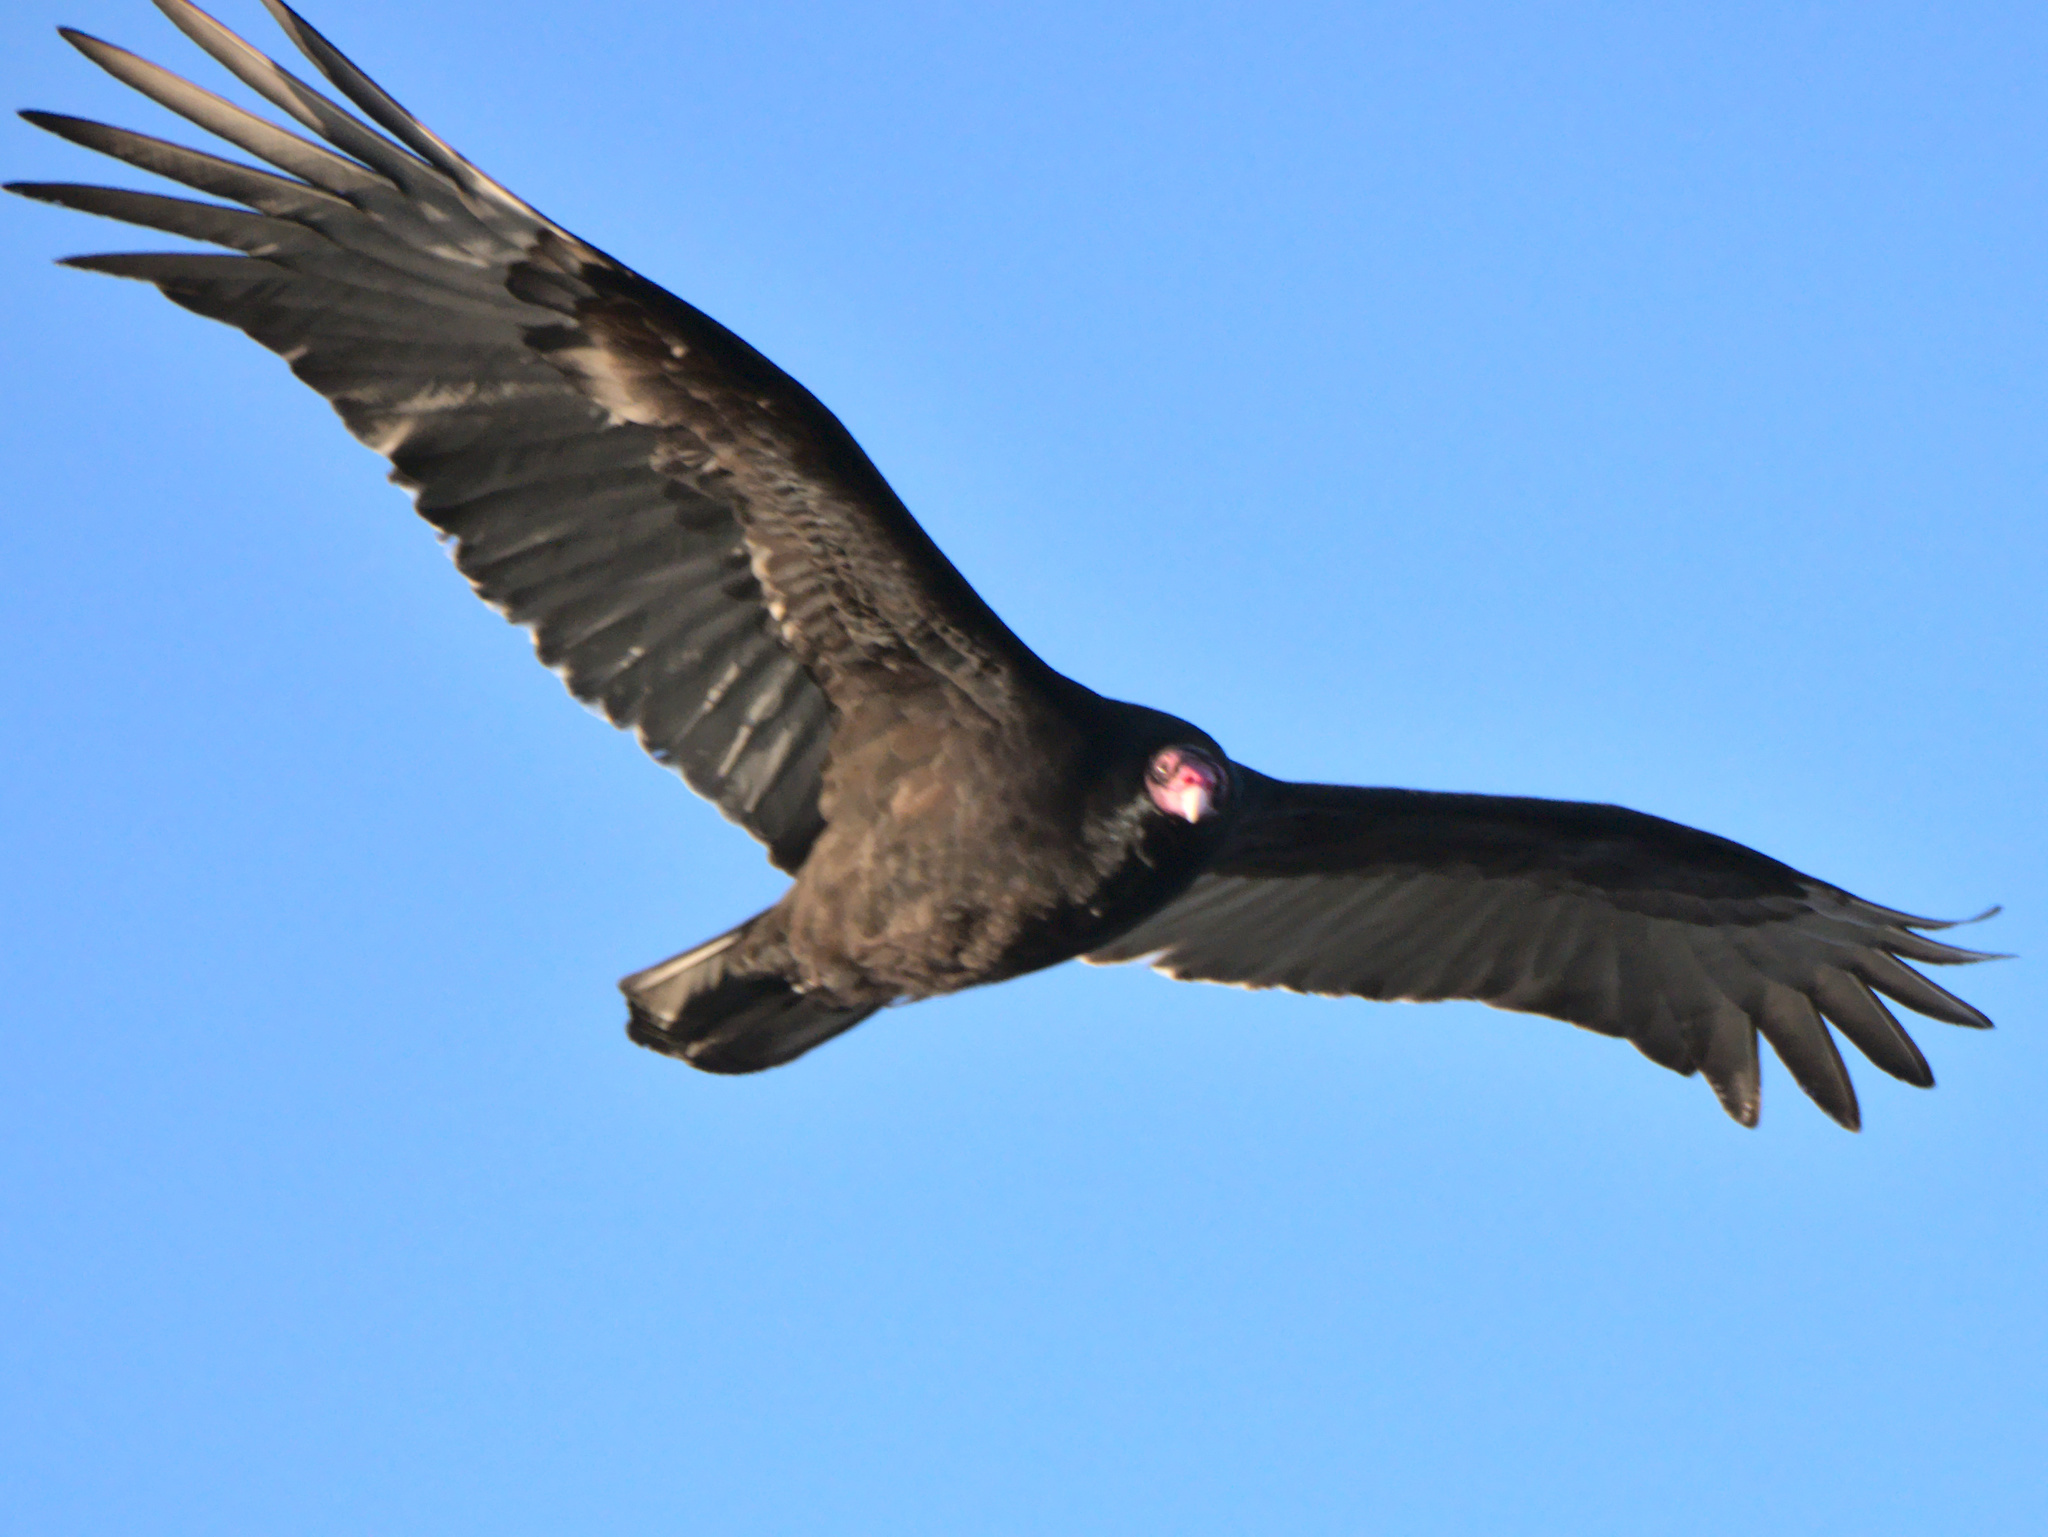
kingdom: Animalia
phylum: Chordata
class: Aves
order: Accipitriformes
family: Cathartidae
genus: Cathartes
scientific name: Cathartes aura
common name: Turkey vulture
